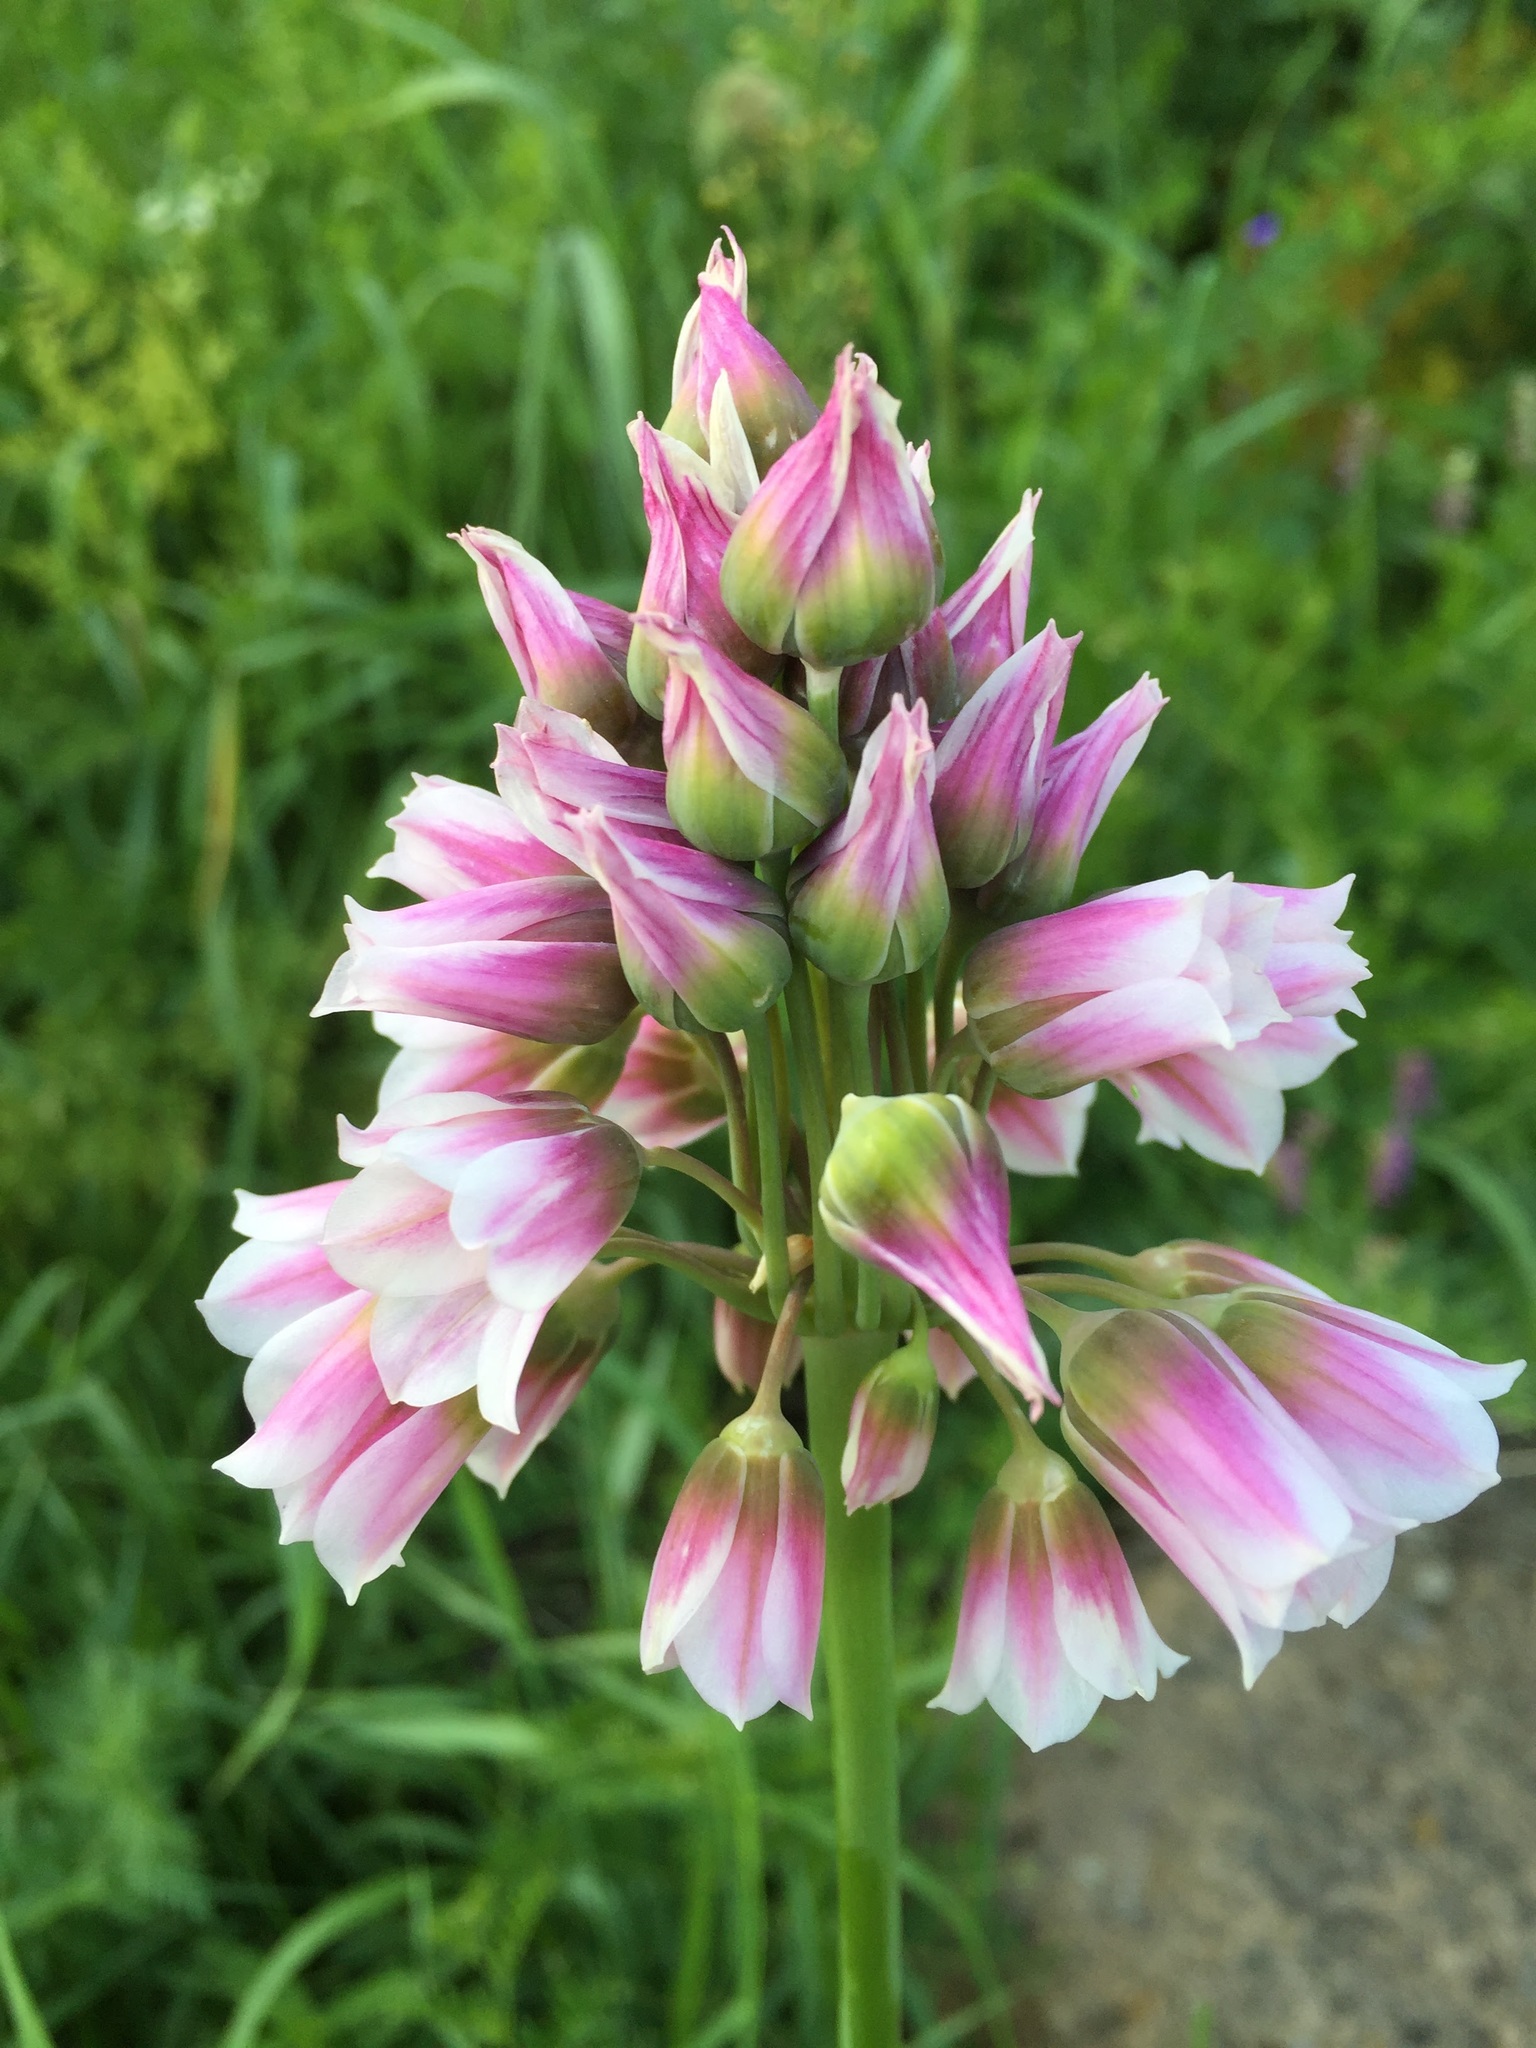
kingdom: Plantae
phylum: Tracheophyta
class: Liliopsida
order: Asparagales
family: Amaryllidaceae
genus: Allium
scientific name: Allium tripedale
